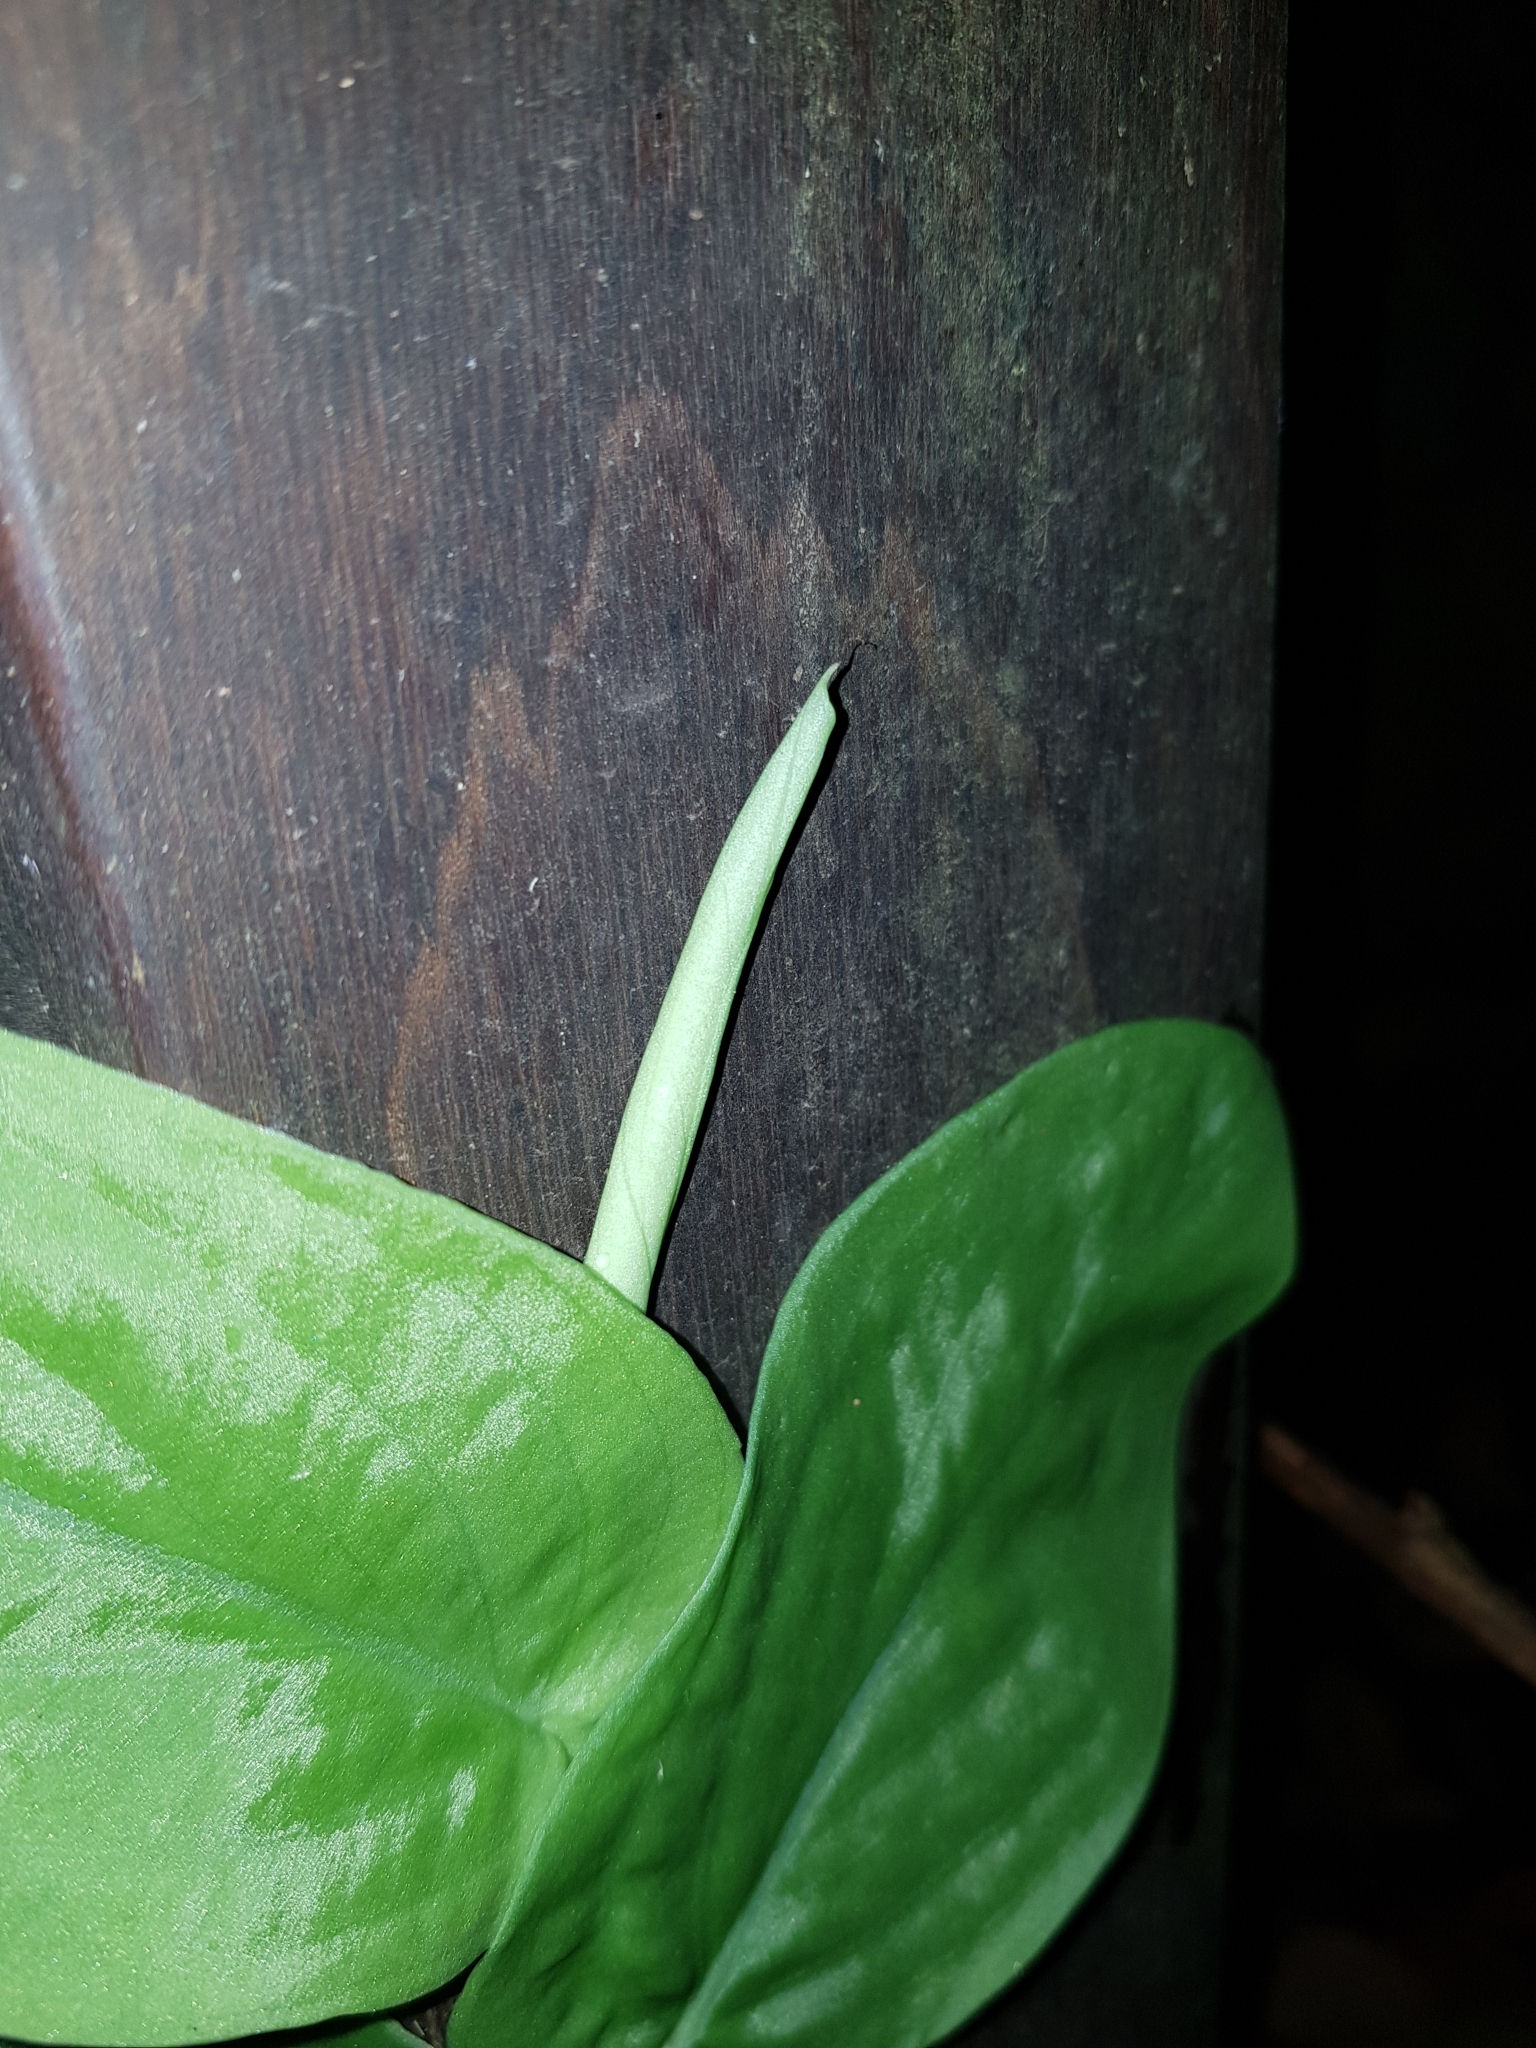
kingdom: Plantae
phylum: Tracheophyta
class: Liliopsida
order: Alismatales
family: Araceae
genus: Rhaphidophora
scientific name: Rhaphidophora korthalsii
